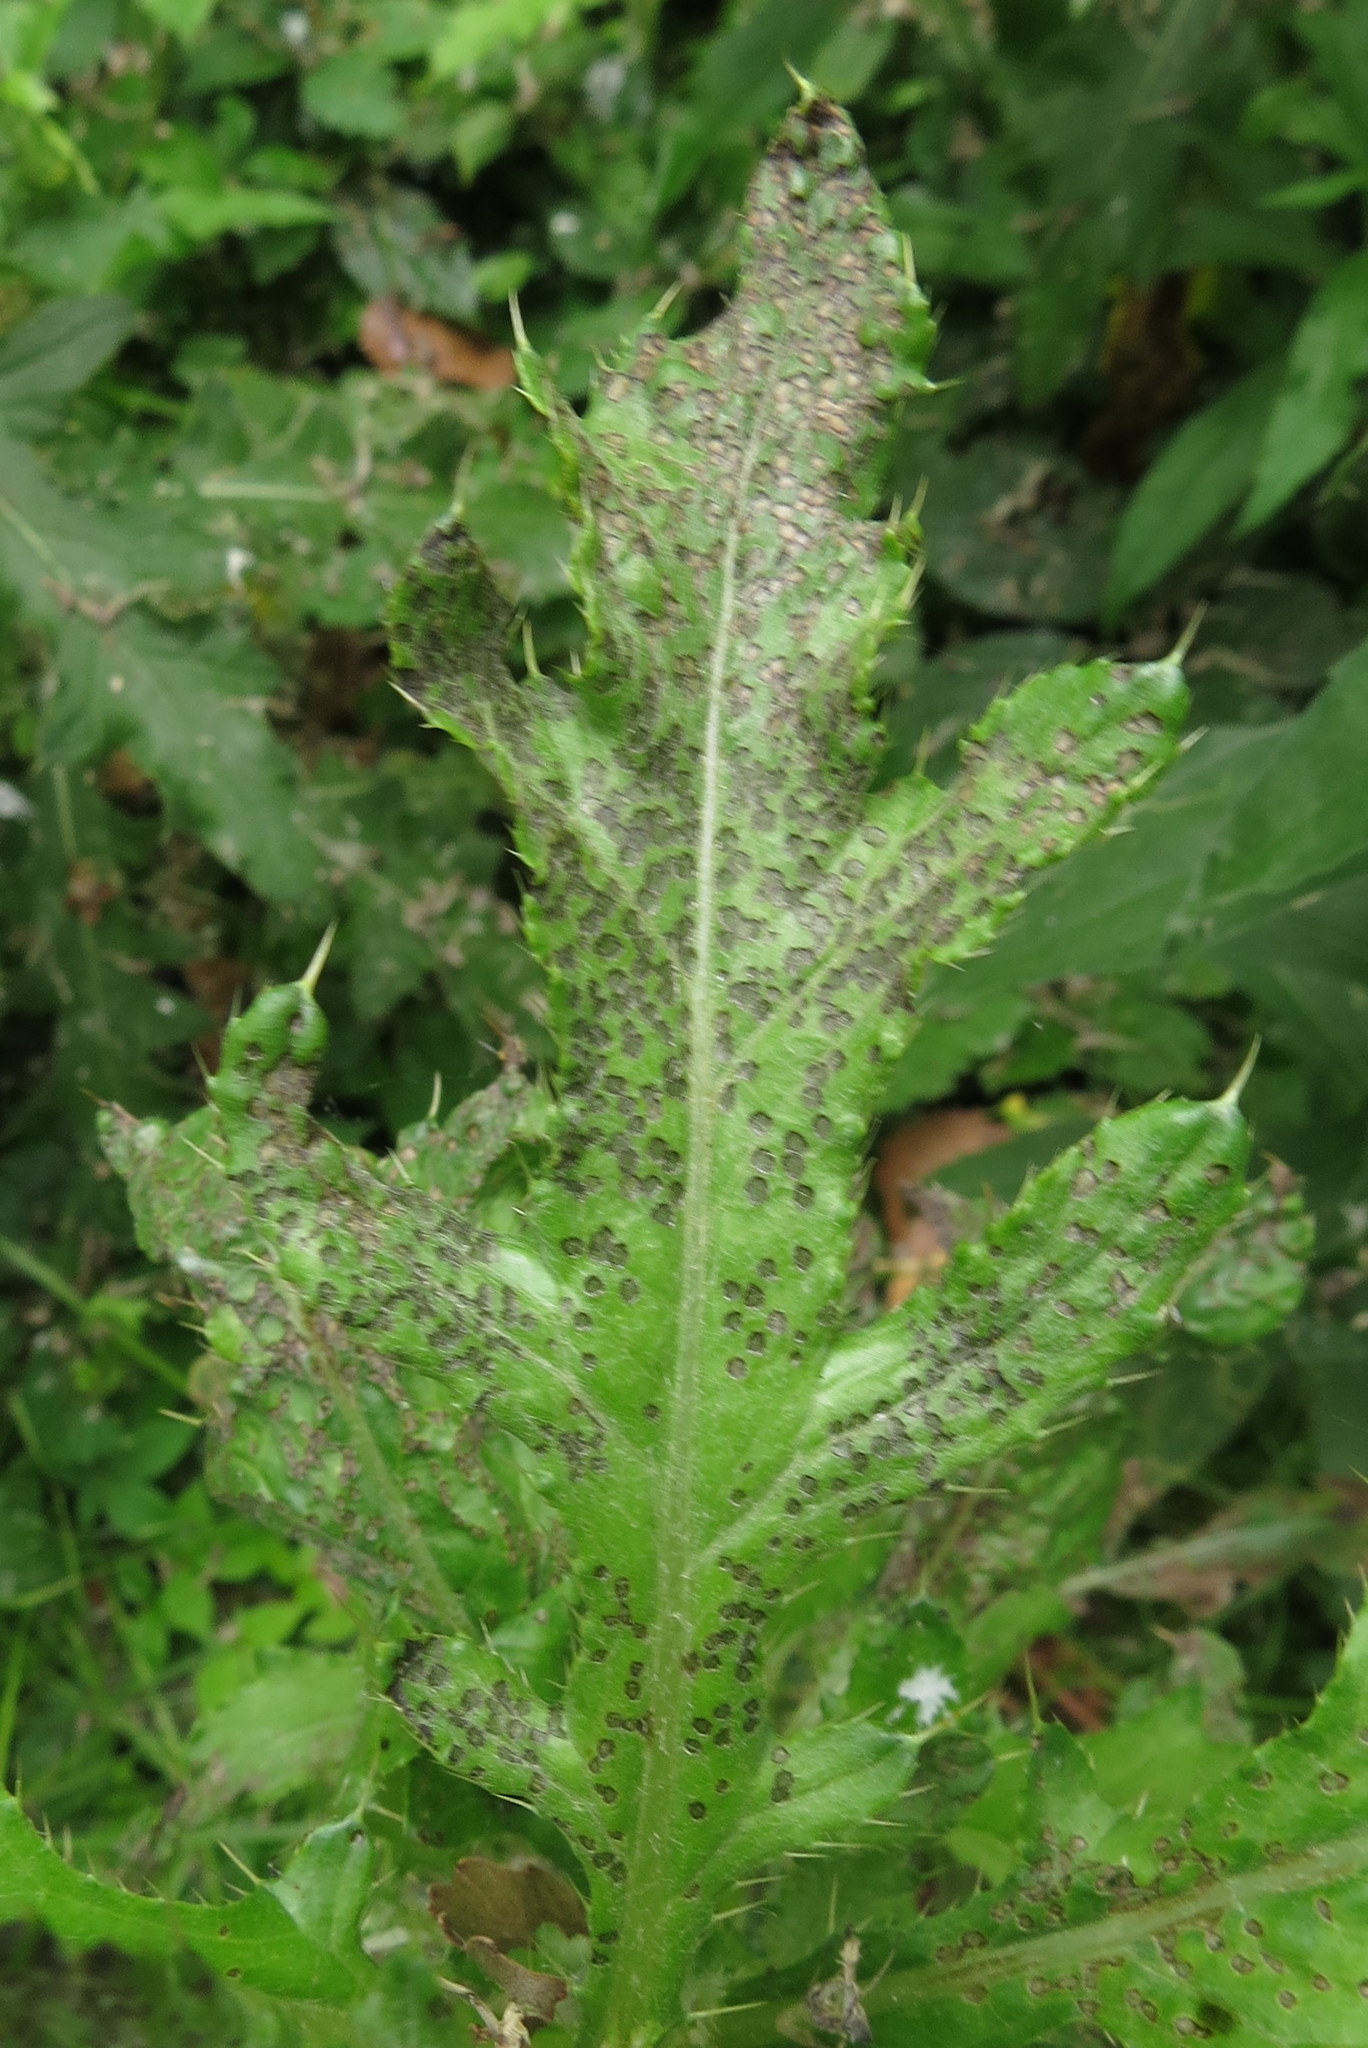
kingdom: Animalia
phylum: Arthropoda
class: Insecta
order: Hemiptera
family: Miridae
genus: Poecilocapsus
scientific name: Poecilocapsus lineatus
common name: Four-lined plant bug
